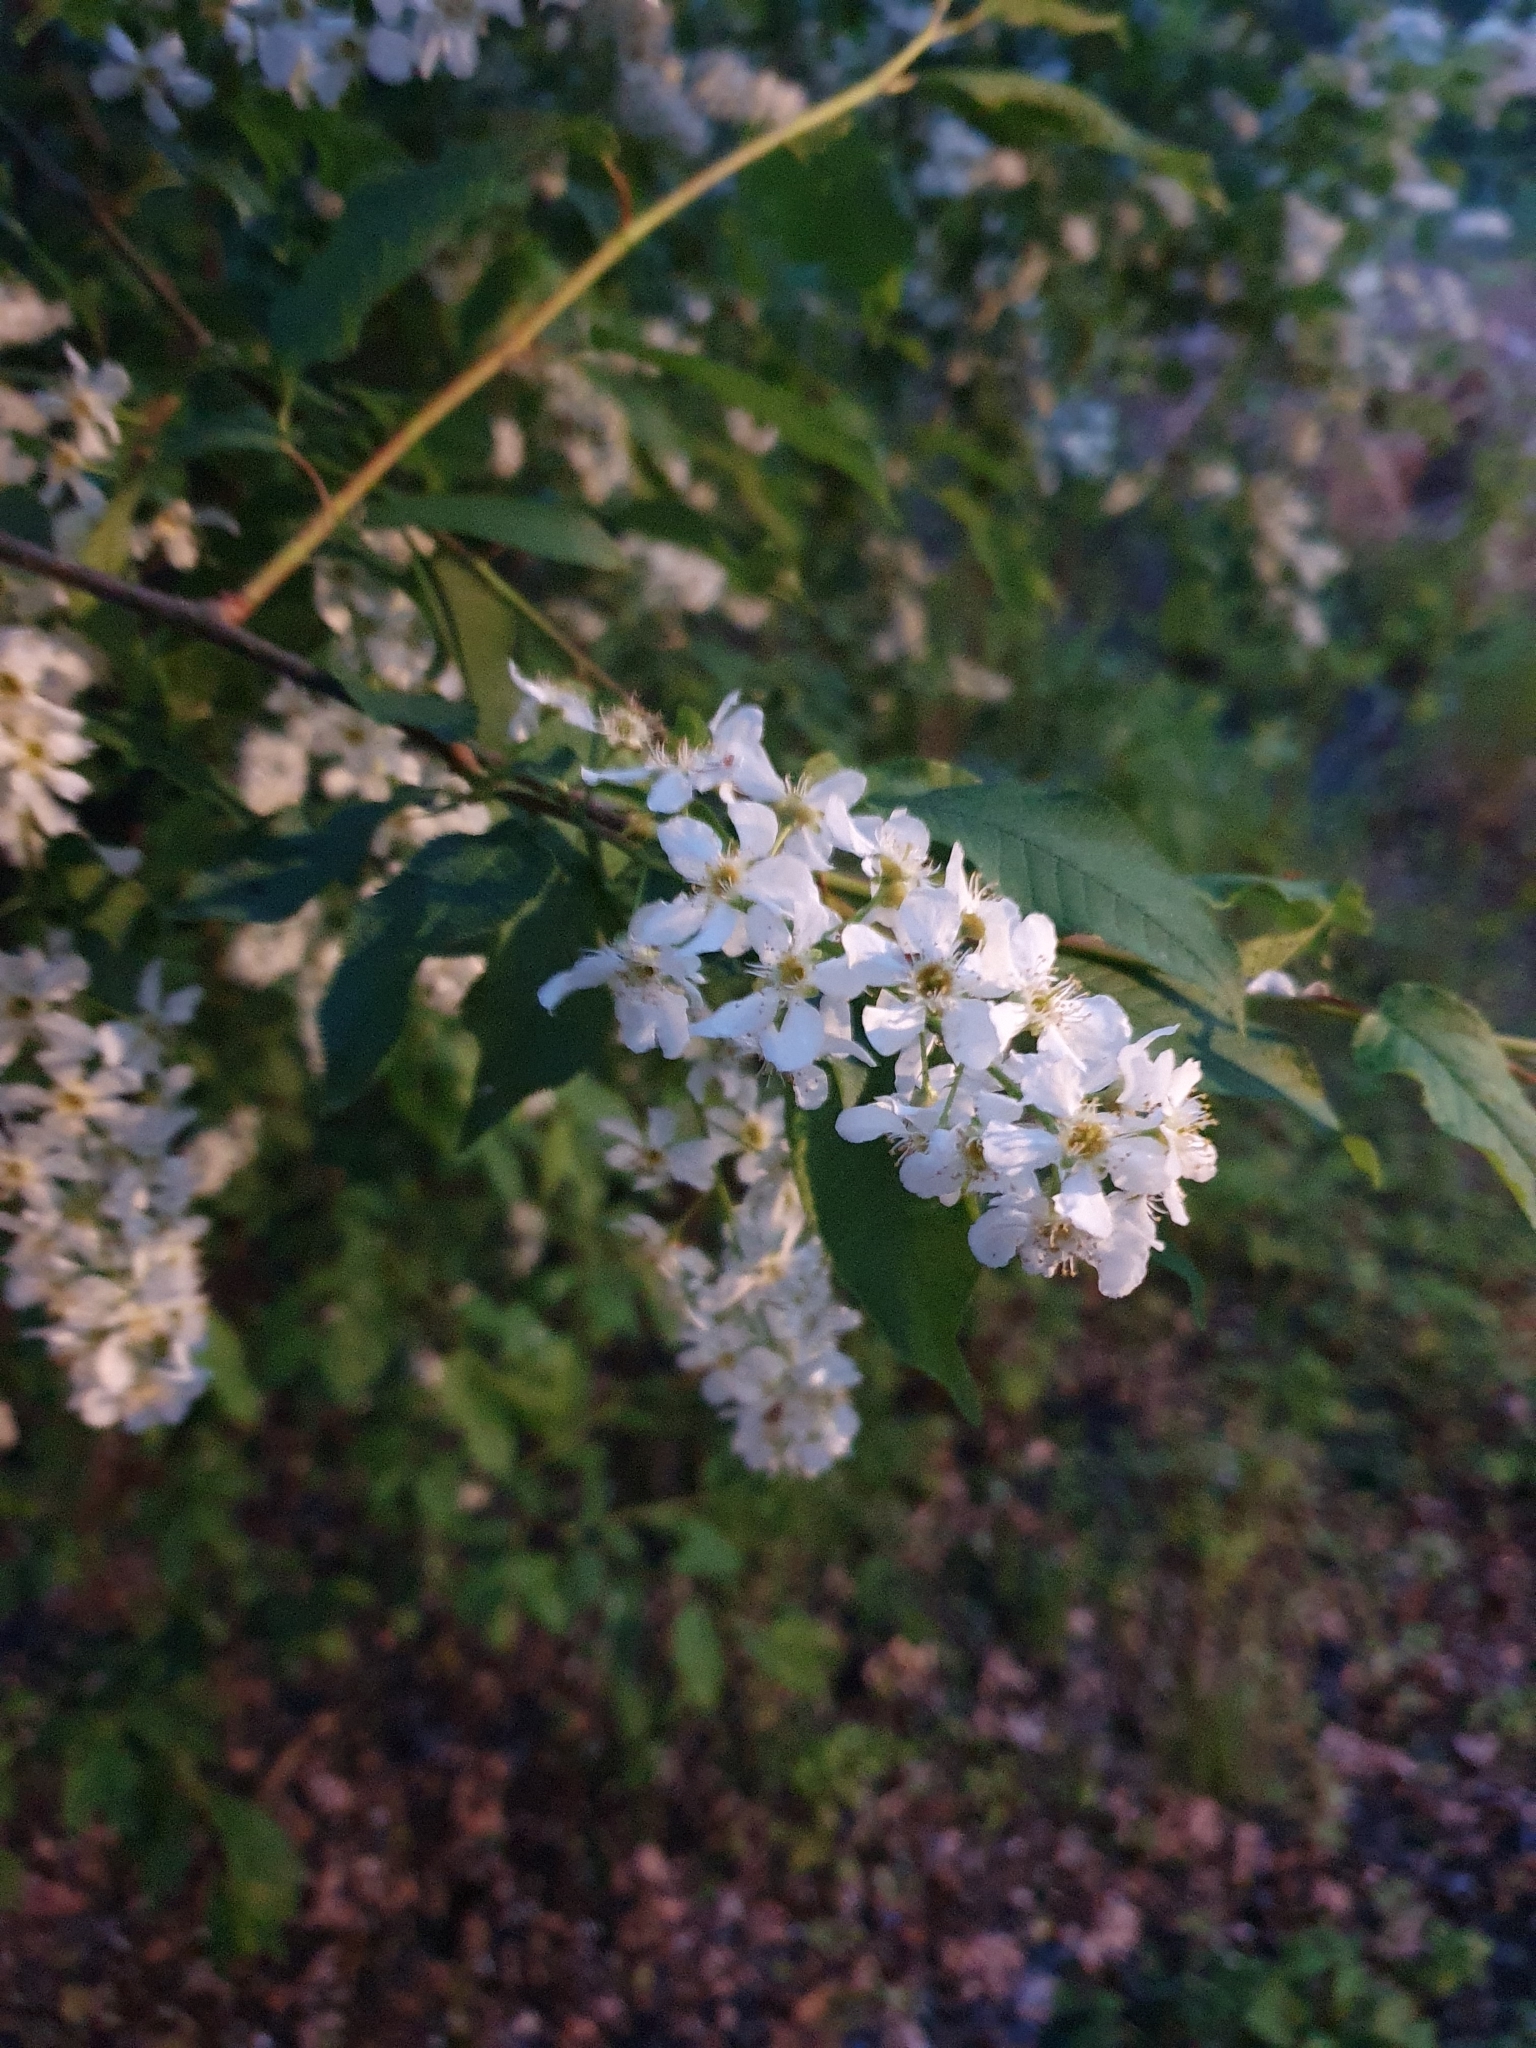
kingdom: Plantae
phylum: Tracheophyta
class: Magnoliopsida
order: Rosales
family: Rosaceae
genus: Prunus
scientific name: Prunus padus
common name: Bird cherry
